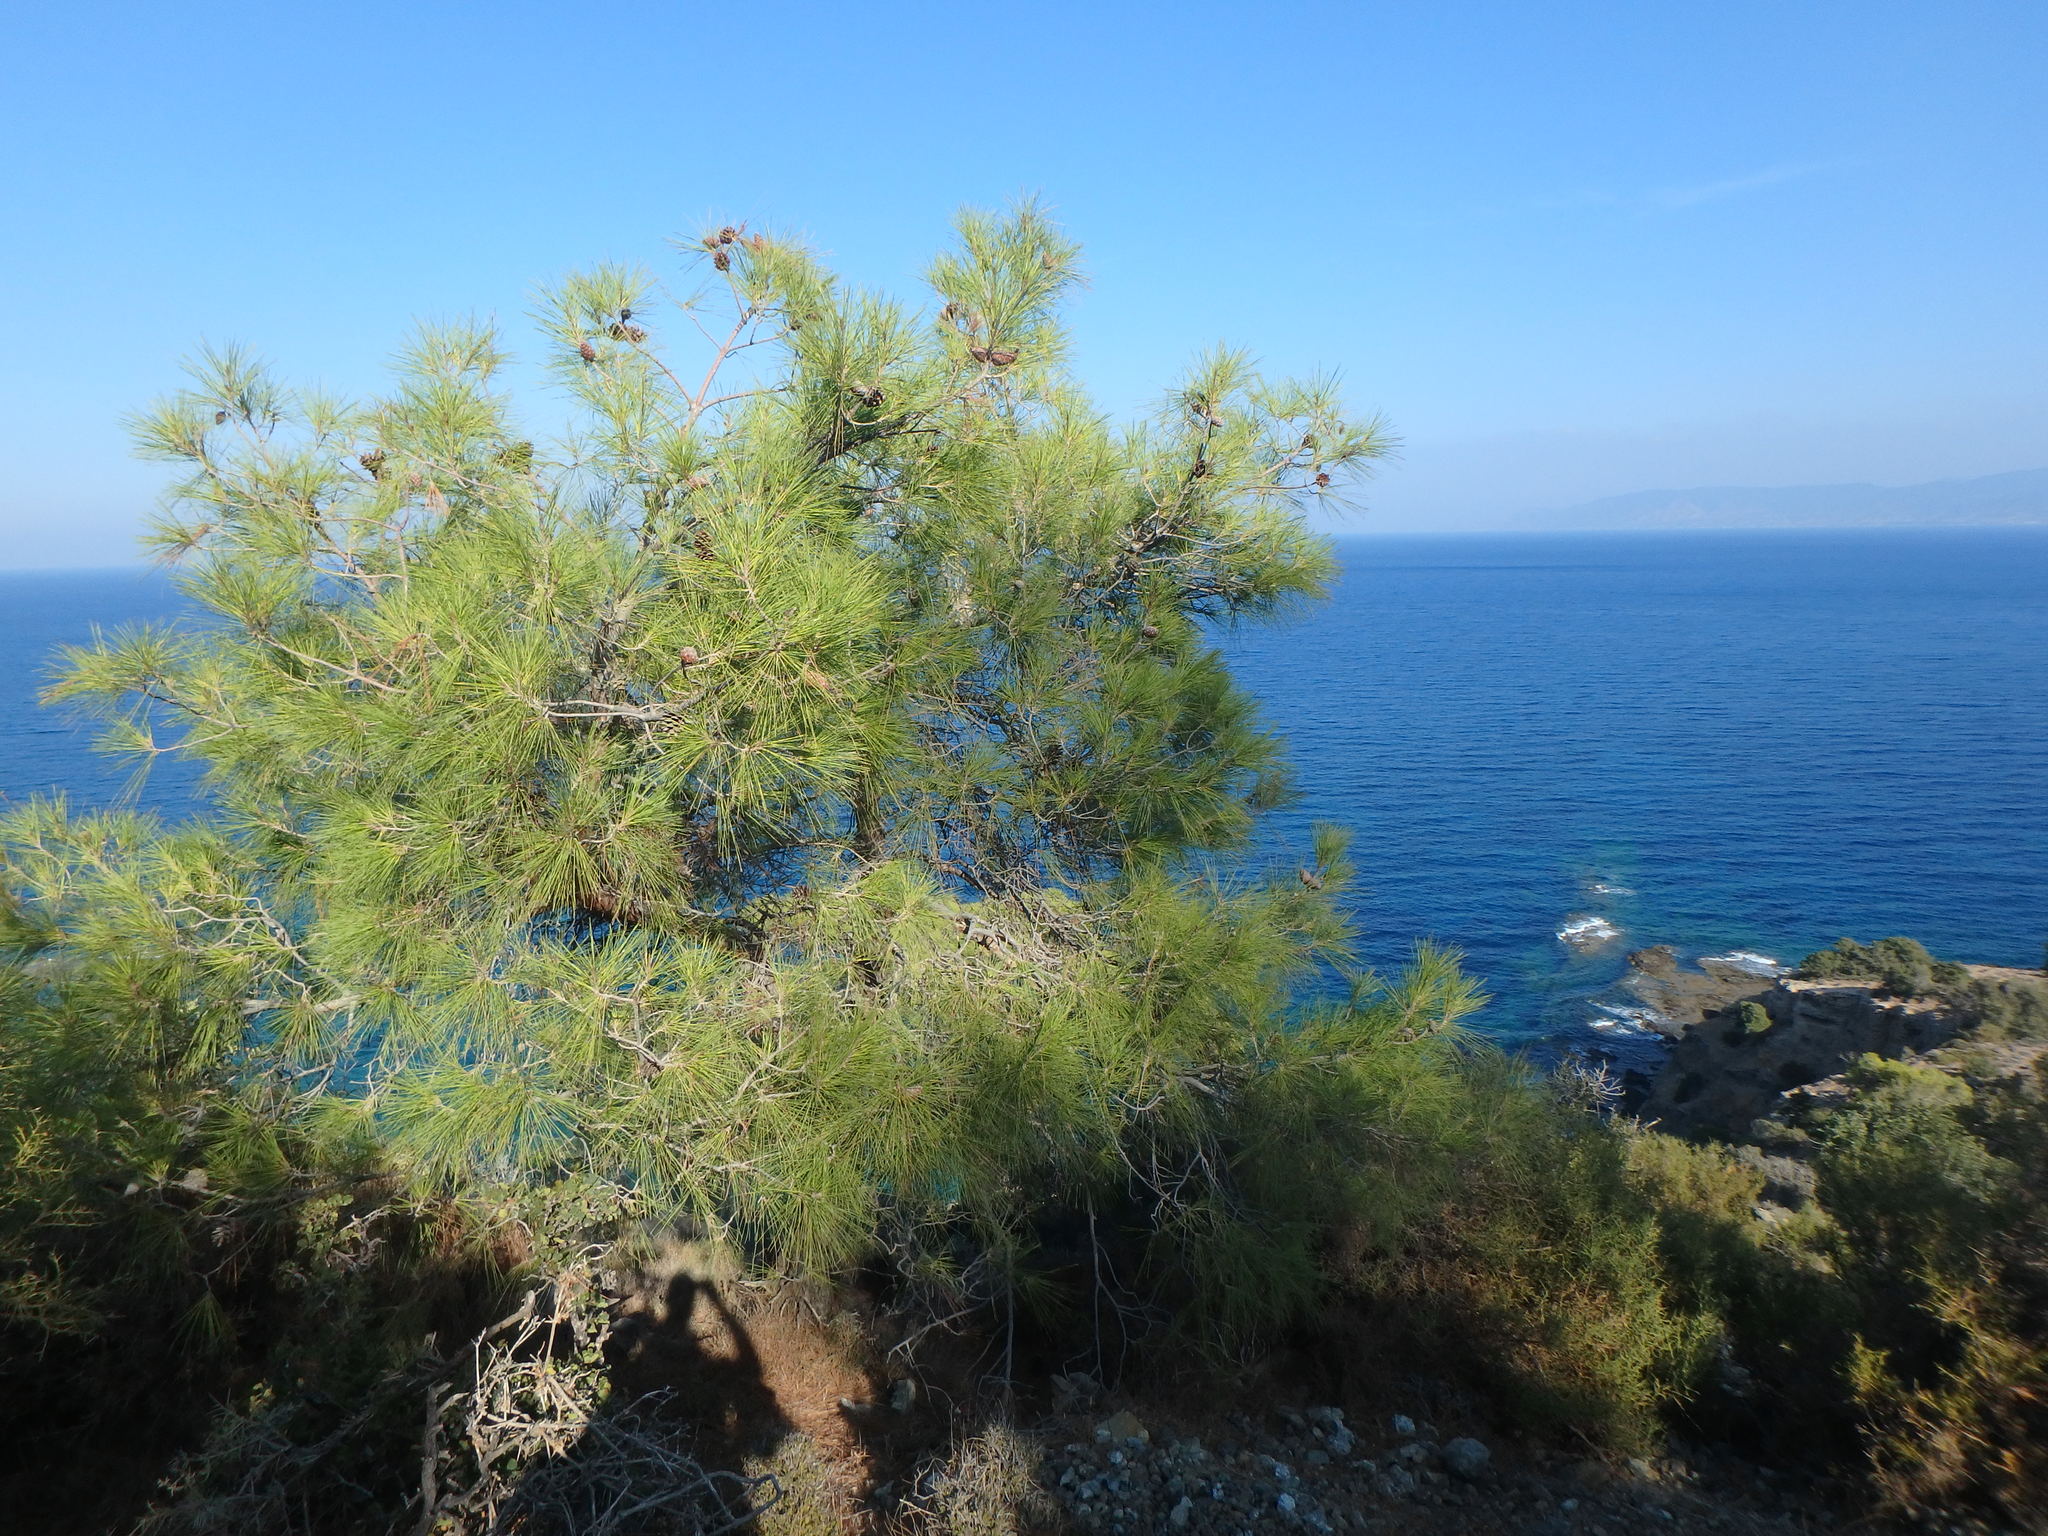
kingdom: Plantae
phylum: Tracheophyta
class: Pinopsida
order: Pinales
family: Pinaceae
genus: Pinus
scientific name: Pinus brutia
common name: Turkish pine
